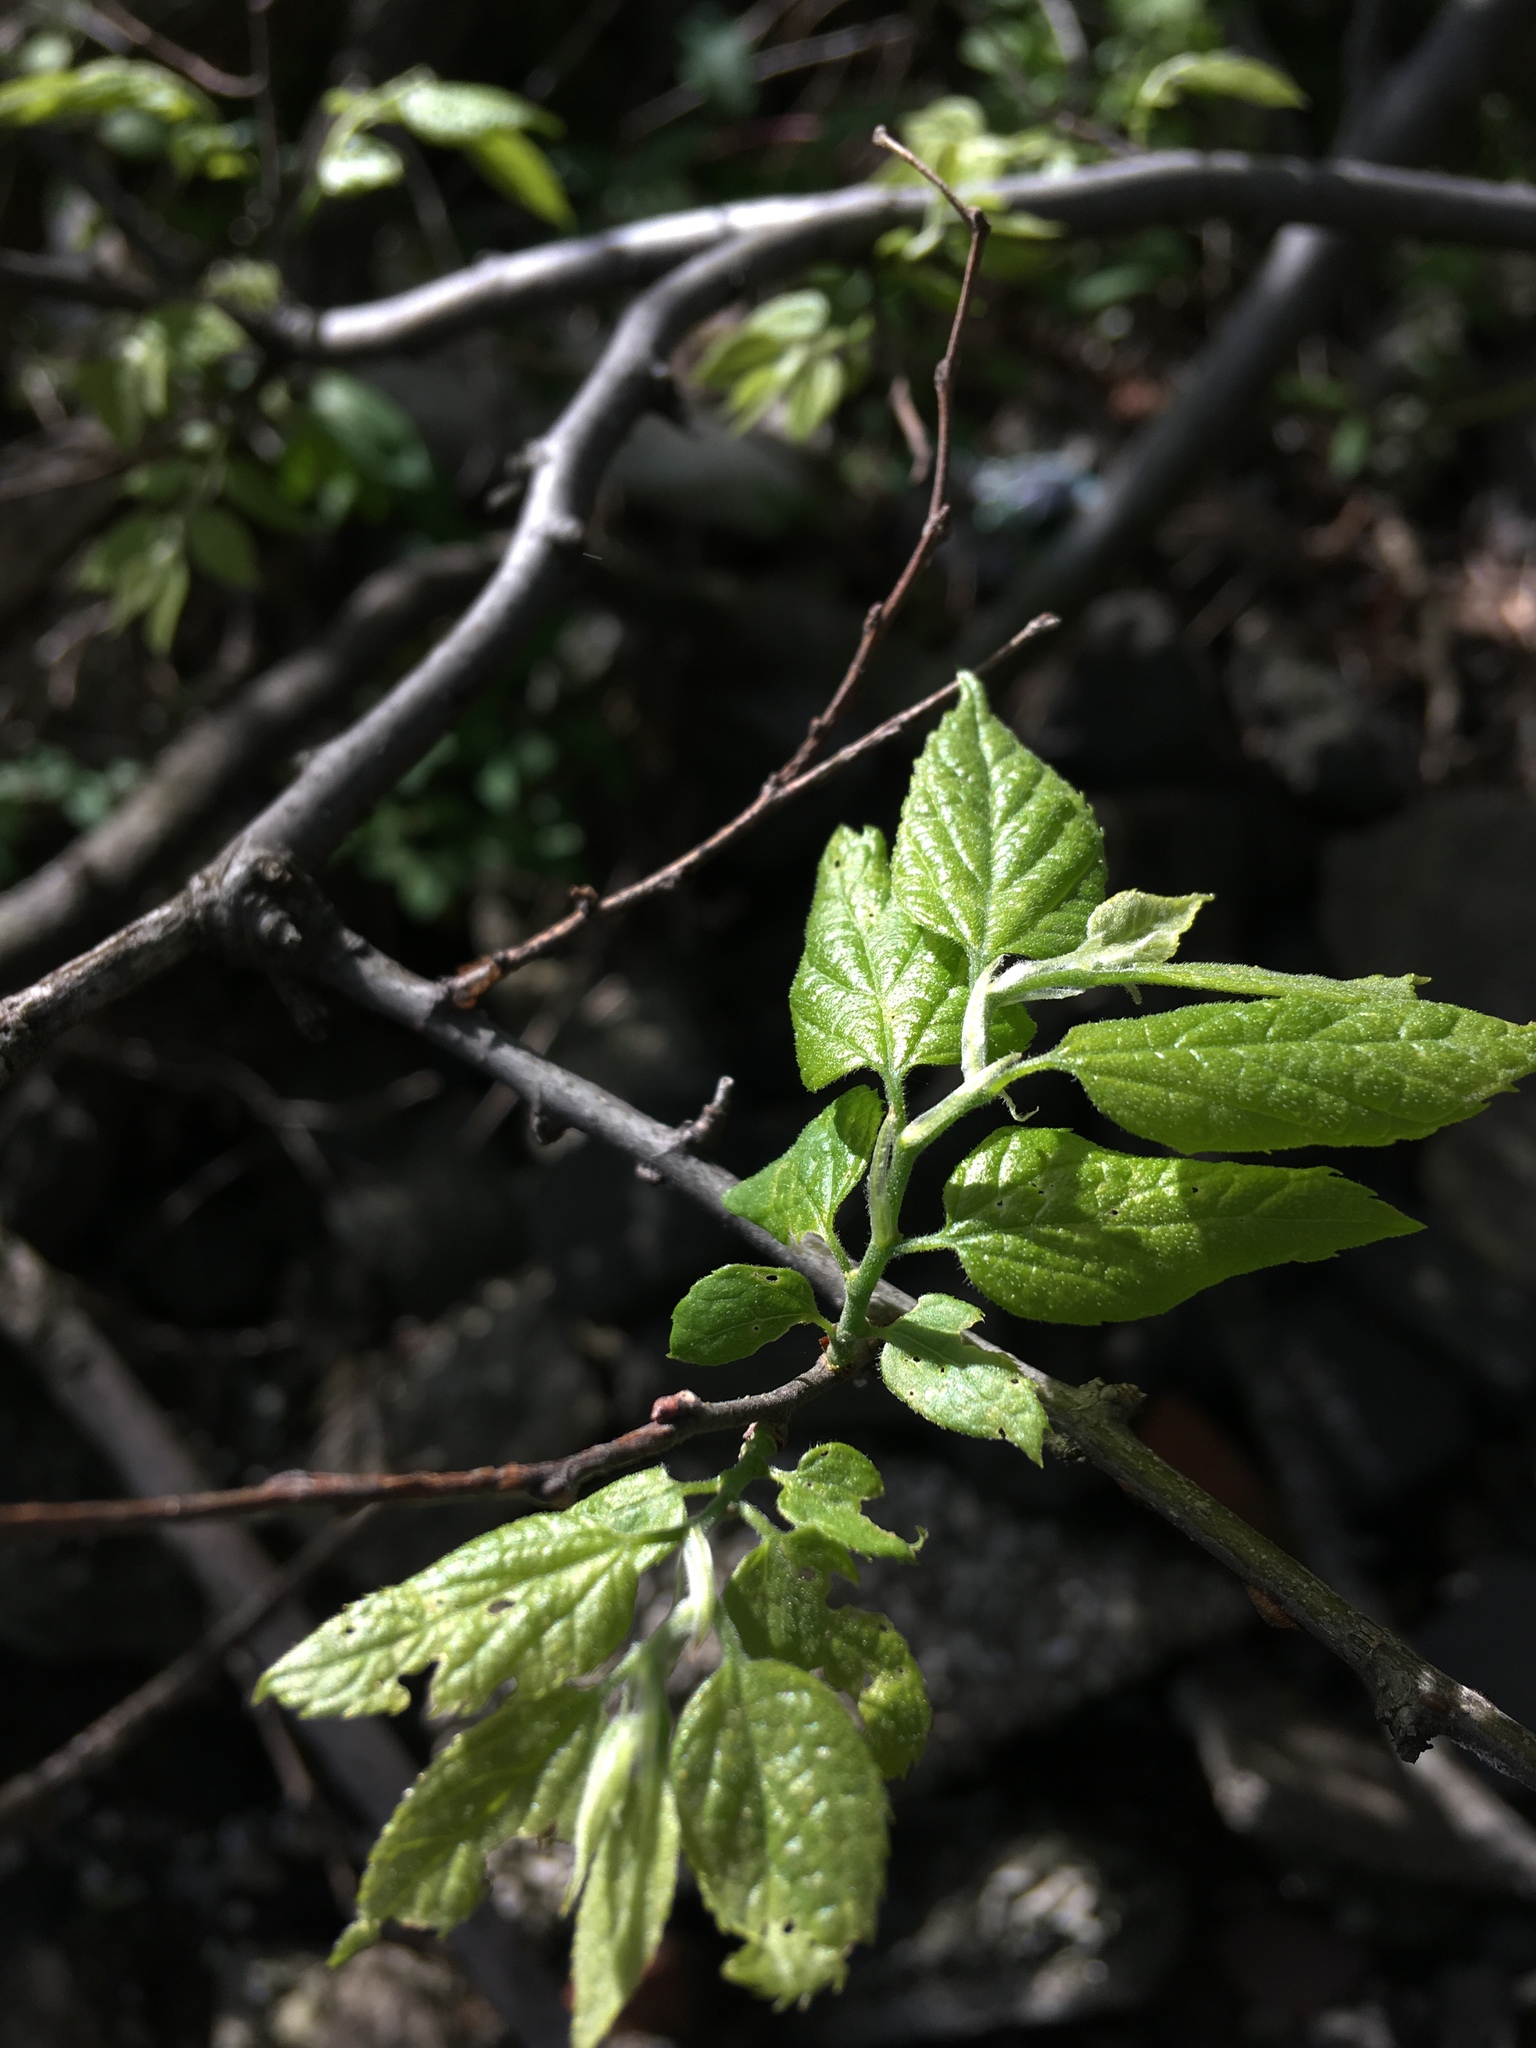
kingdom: Plantae
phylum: Tracheophyta
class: Magnoliopsida
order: Rosales
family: Cannabaceae
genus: Celtis
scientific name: Celtis occidentalis
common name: Common hackberry
